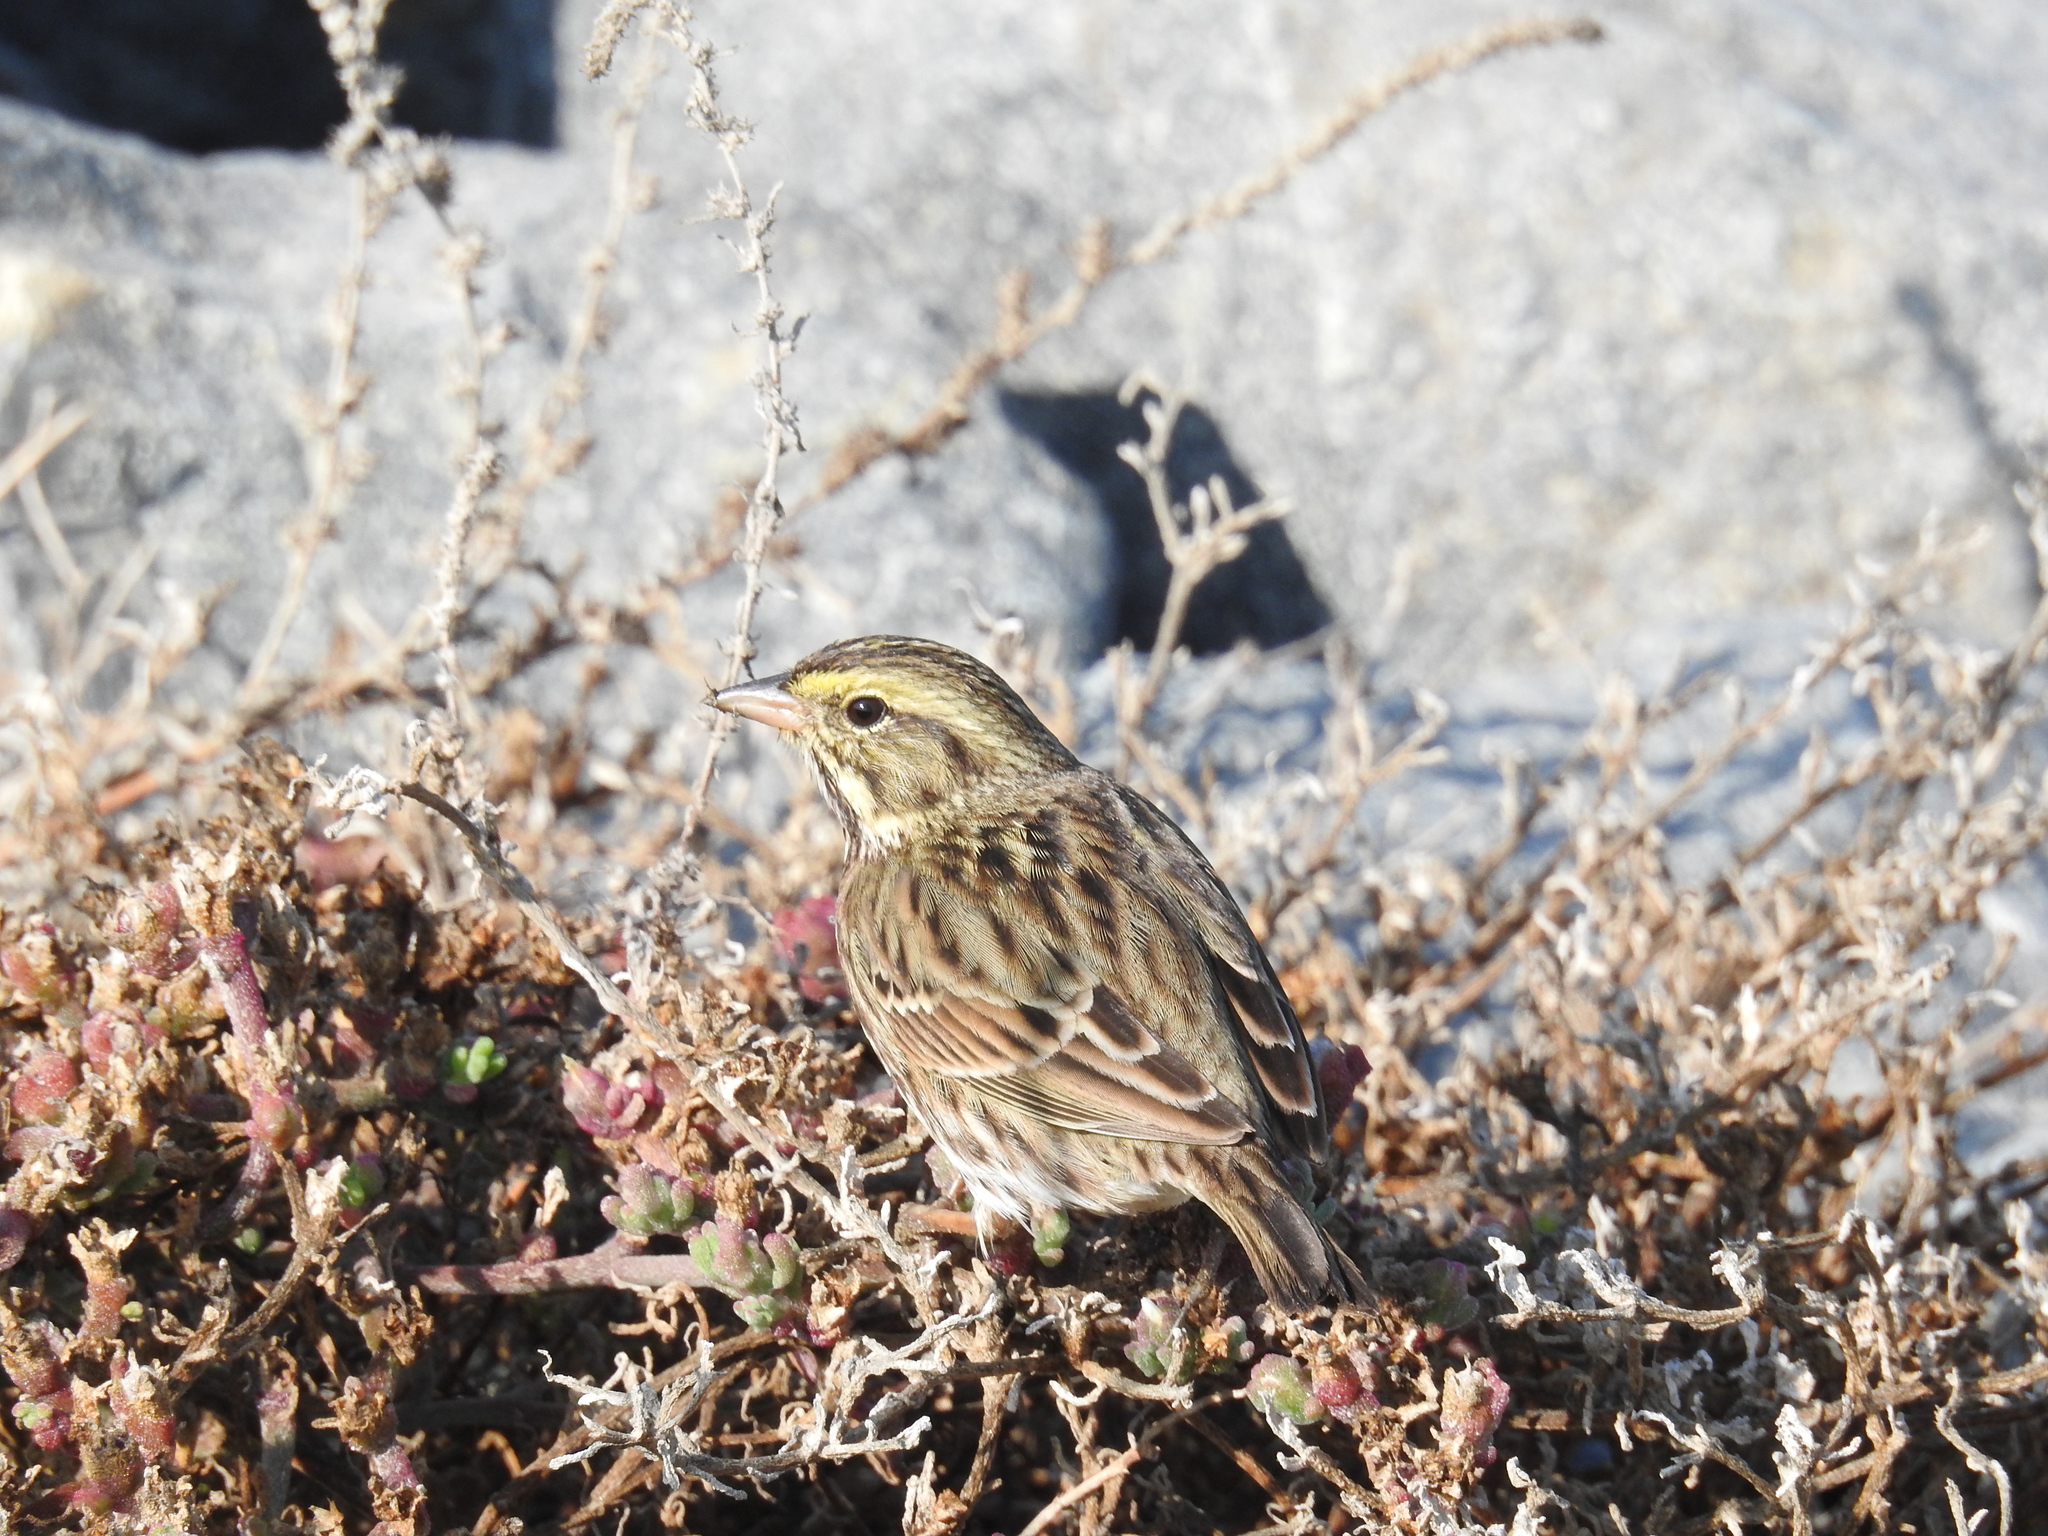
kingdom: Animalia
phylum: Chordata
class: Aves
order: Passeriformes
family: Passerellidae
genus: Passerculus
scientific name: Passerculus sandwichensis
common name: Savannah sparrow
